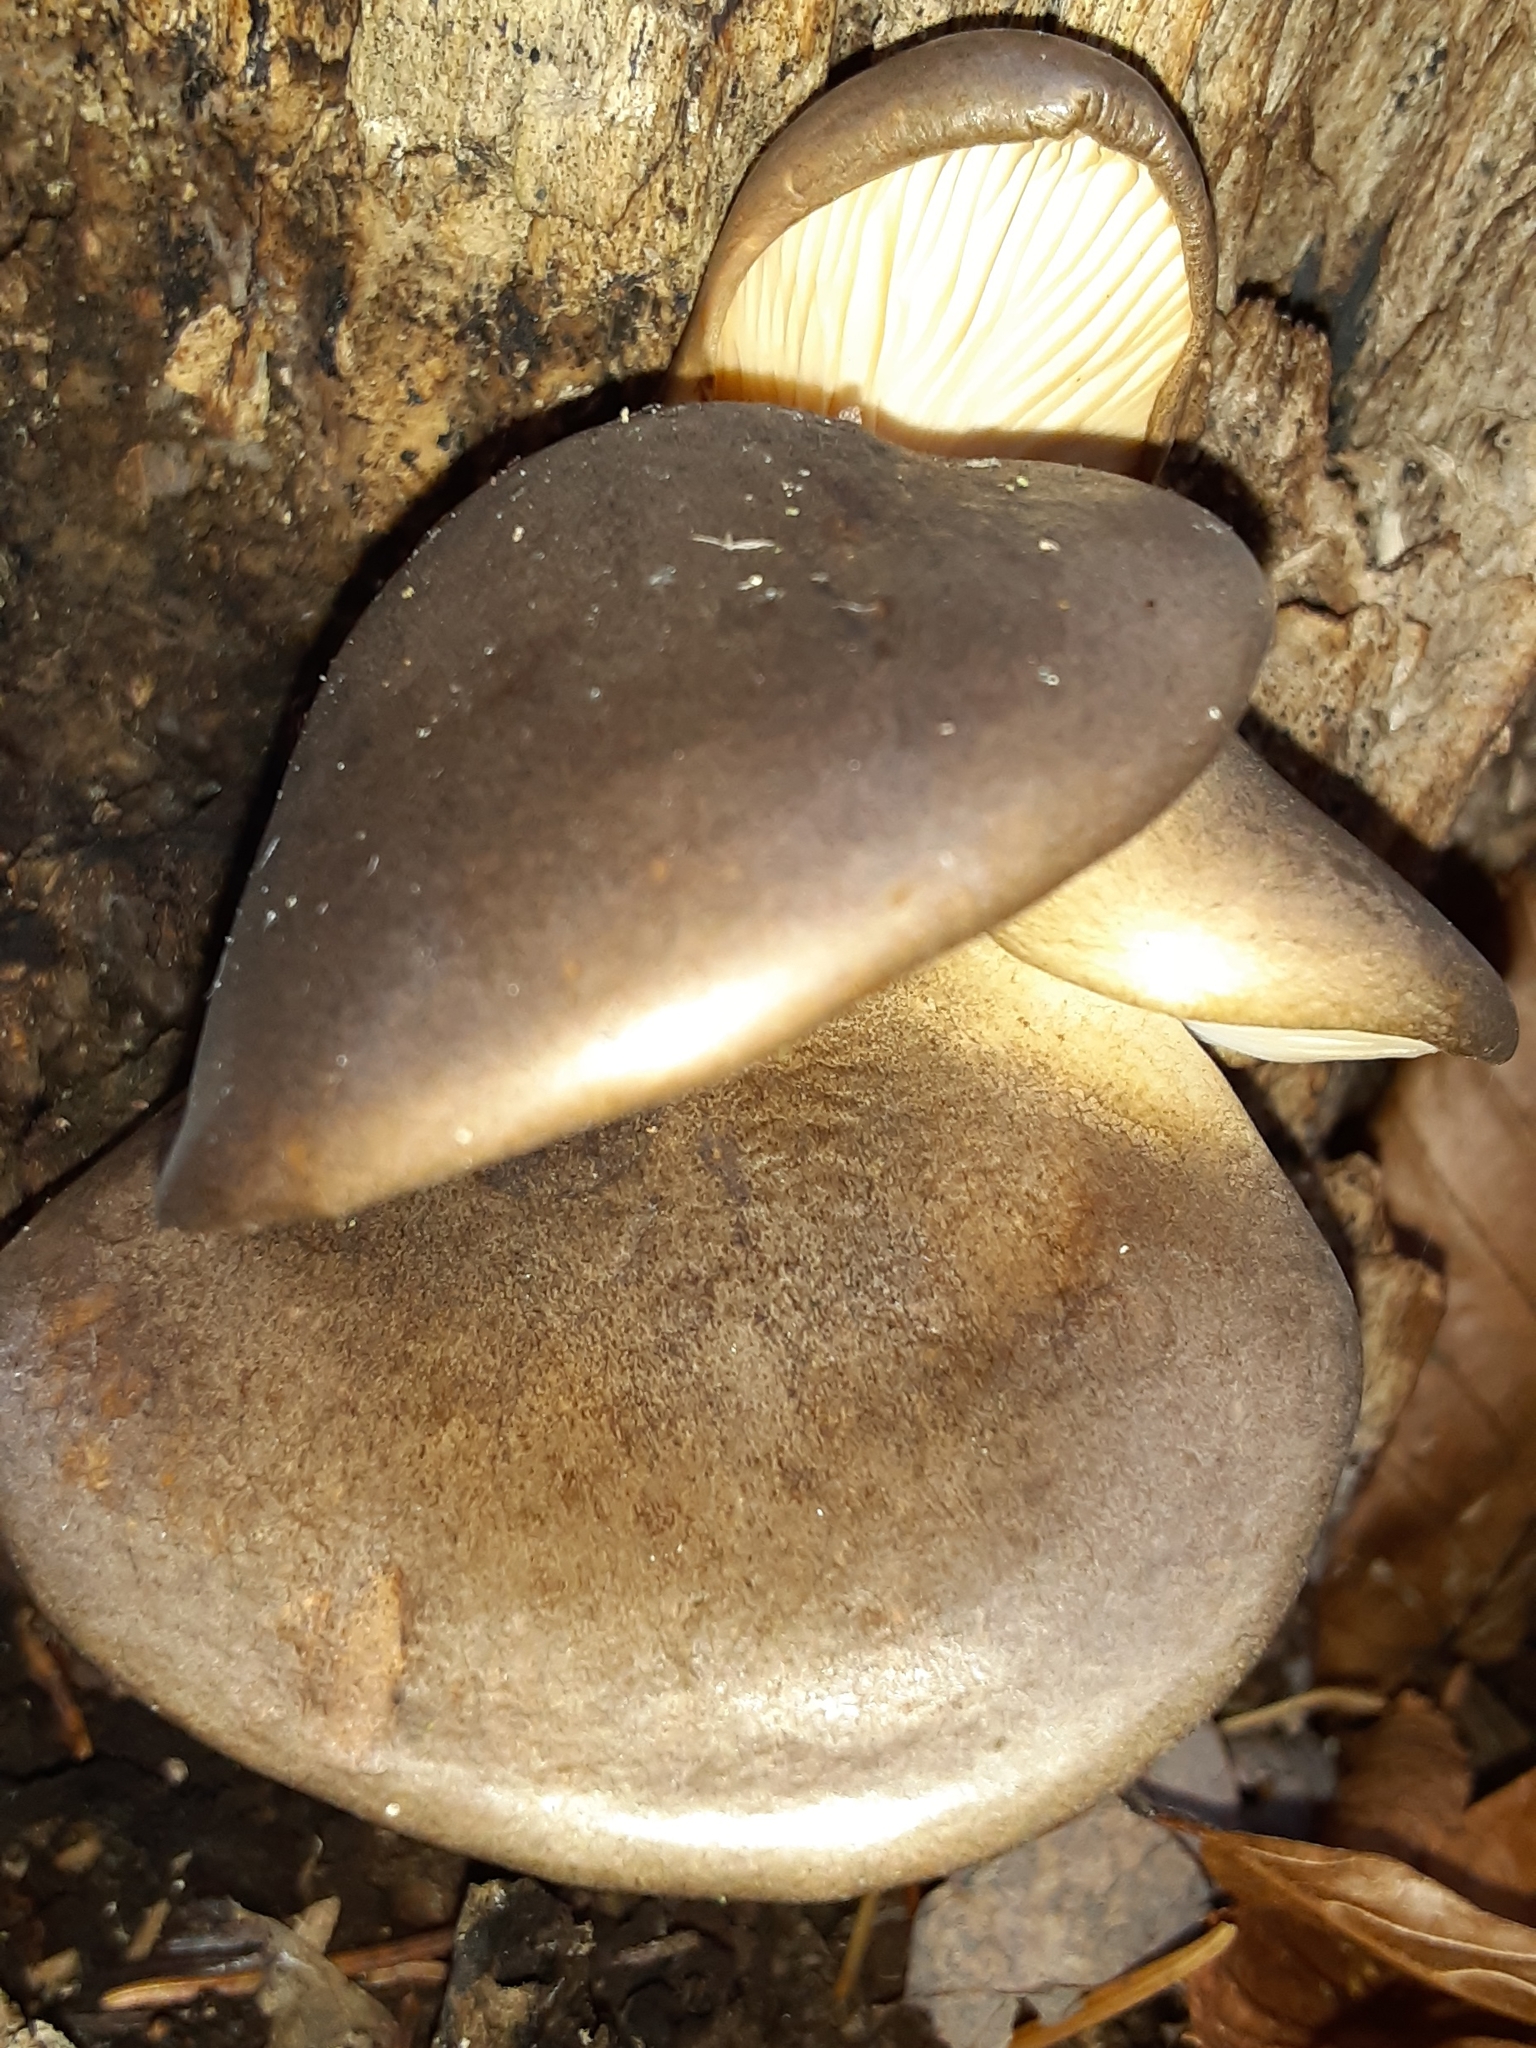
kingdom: Fungi
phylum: Basidiomycota
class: Agaricomycetes
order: Agaricales
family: Sarcomyxaceae
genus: Sarcomyxa
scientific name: Sarcomyxa serotina
